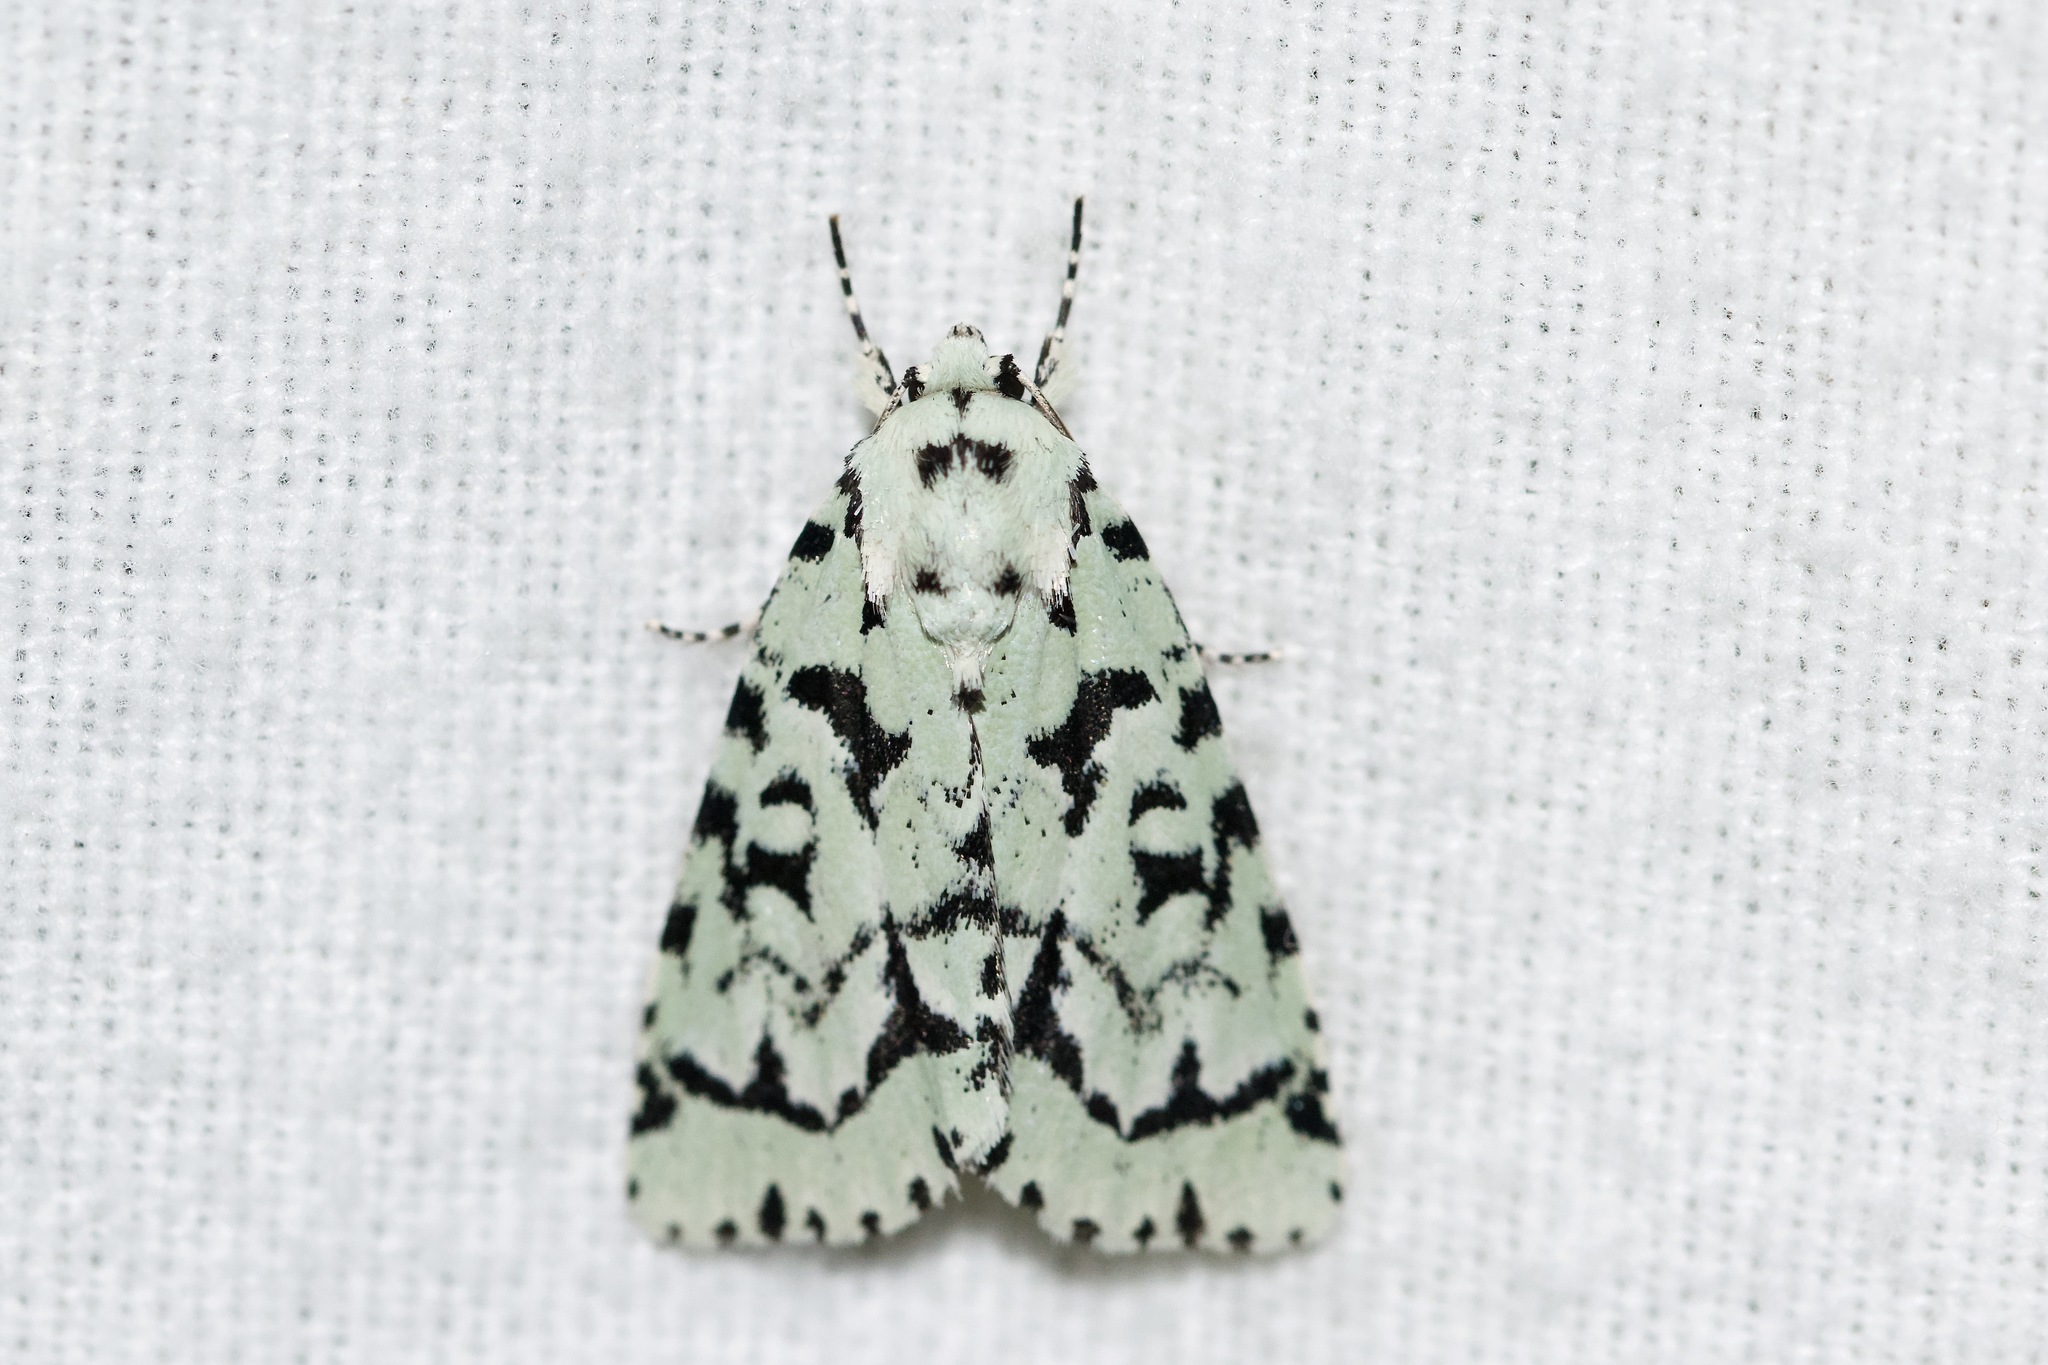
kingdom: Animalia
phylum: Arthropoda
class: Insecta
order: Lepidoptera
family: Noctuidae
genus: Acronicta
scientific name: Acronicta fallax
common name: Green marvel
